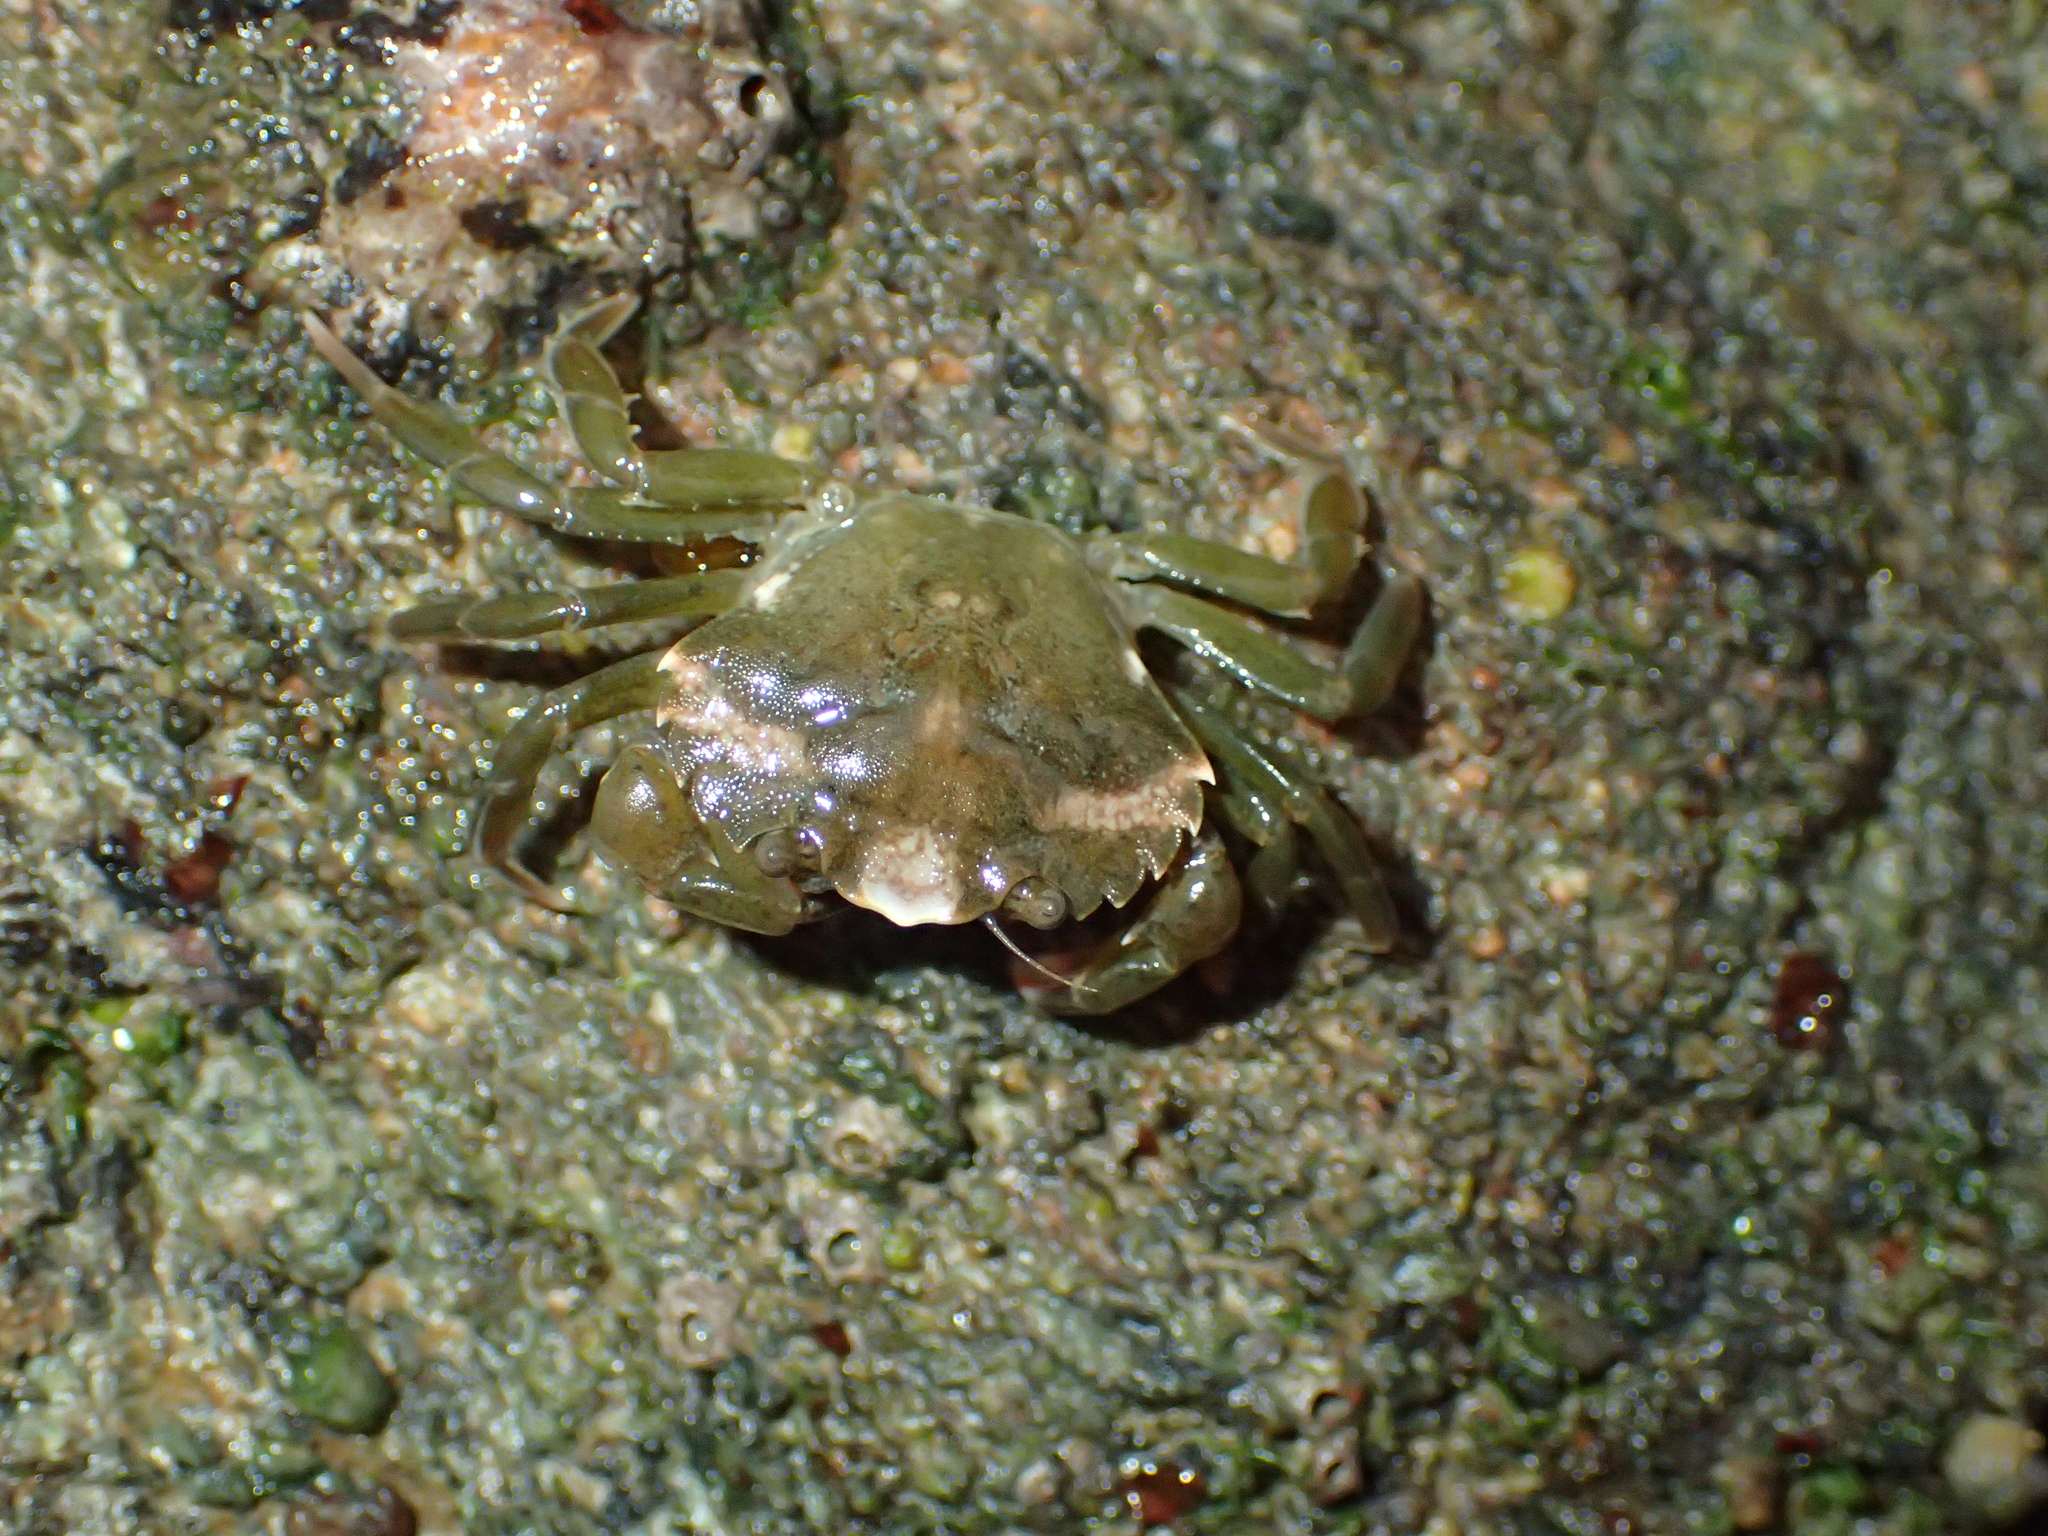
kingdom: Animalia
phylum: Arthropoda
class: Malacostraca
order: Decapoda
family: Carcinidae
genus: Carcinus
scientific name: Carcinus maenas
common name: European green crab
